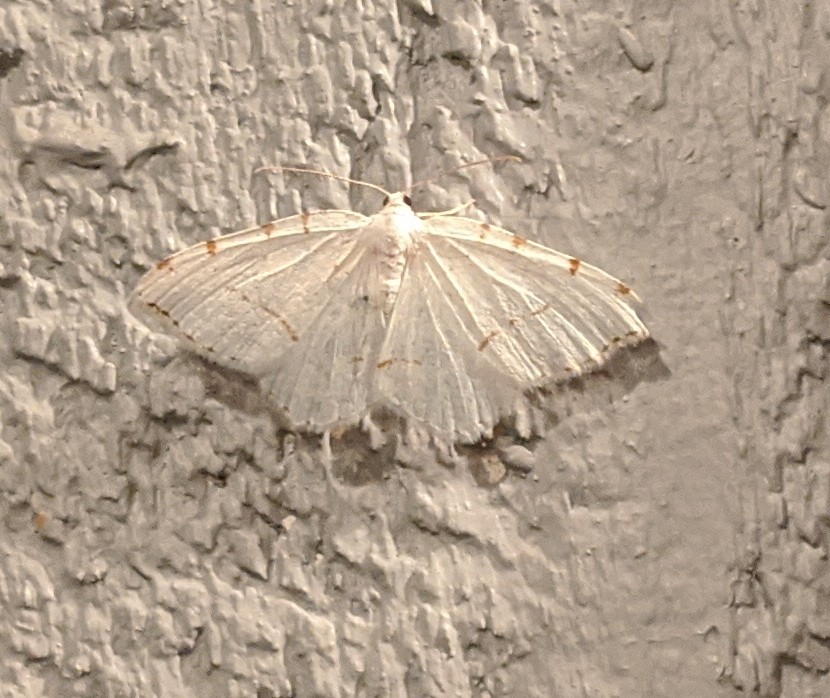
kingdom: Animalia
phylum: Arthropoda
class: Insecta
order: Lepidoptera
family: Geometridae
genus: Macaria
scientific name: Macaria pustularia
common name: Lesser maple spanworm moth
